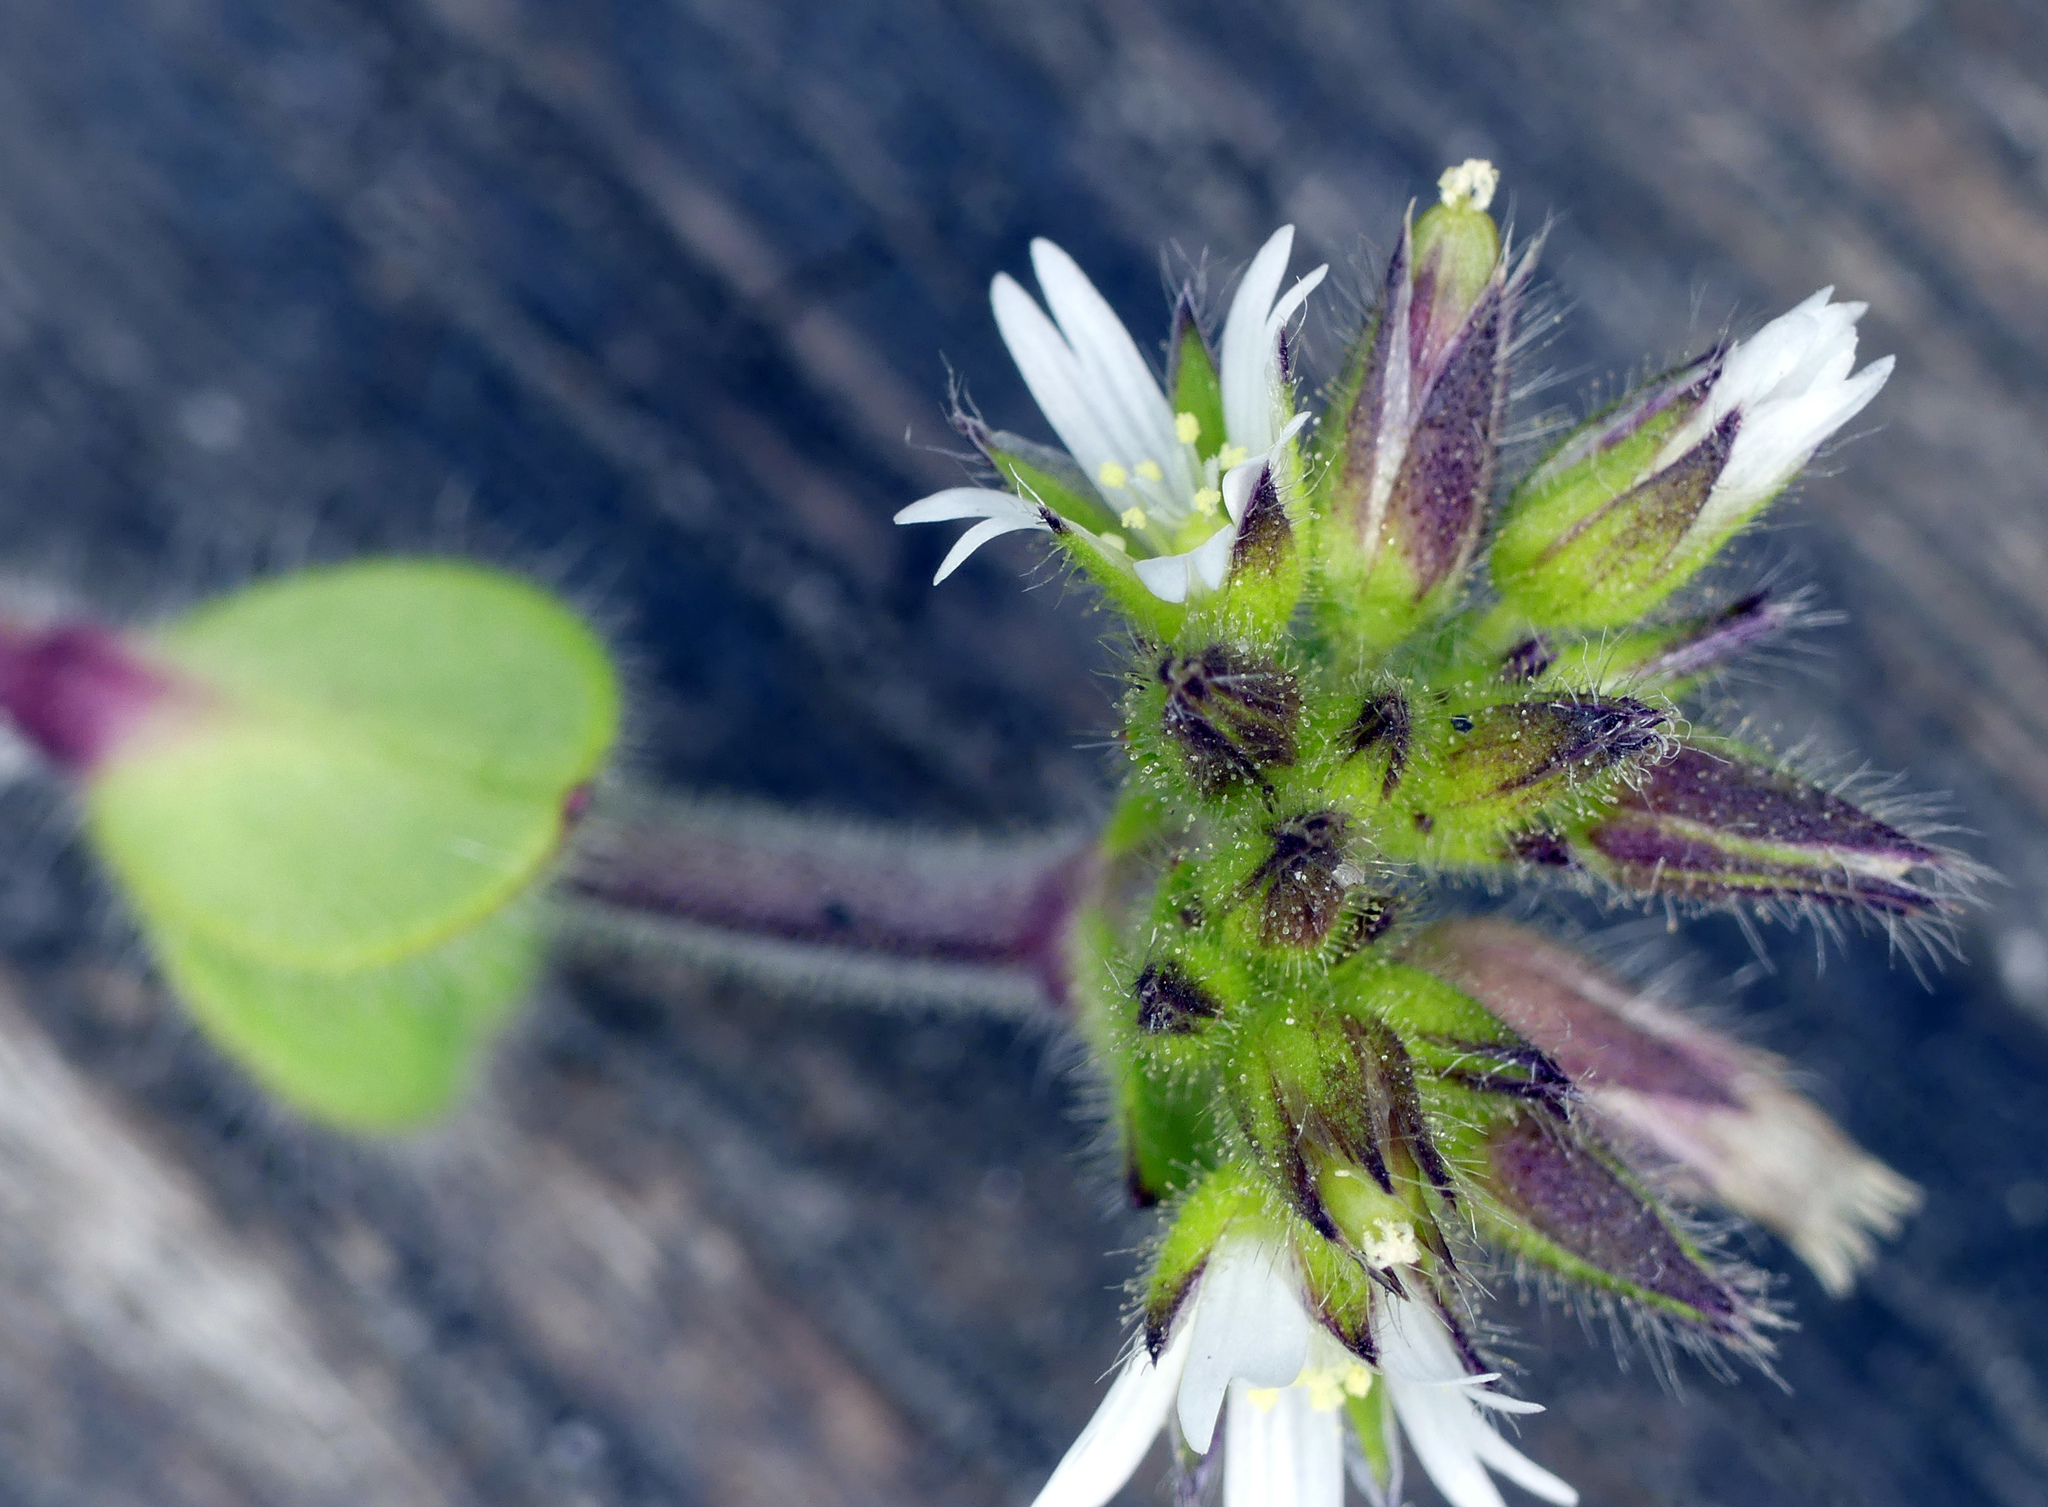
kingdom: Plantae
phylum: Tracheophyta
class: Magnoliopsida
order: Caryophyllales
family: Caryophyllaceae
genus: Cerastium
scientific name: Cerastium glomeratum
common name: Sticky chickweed
